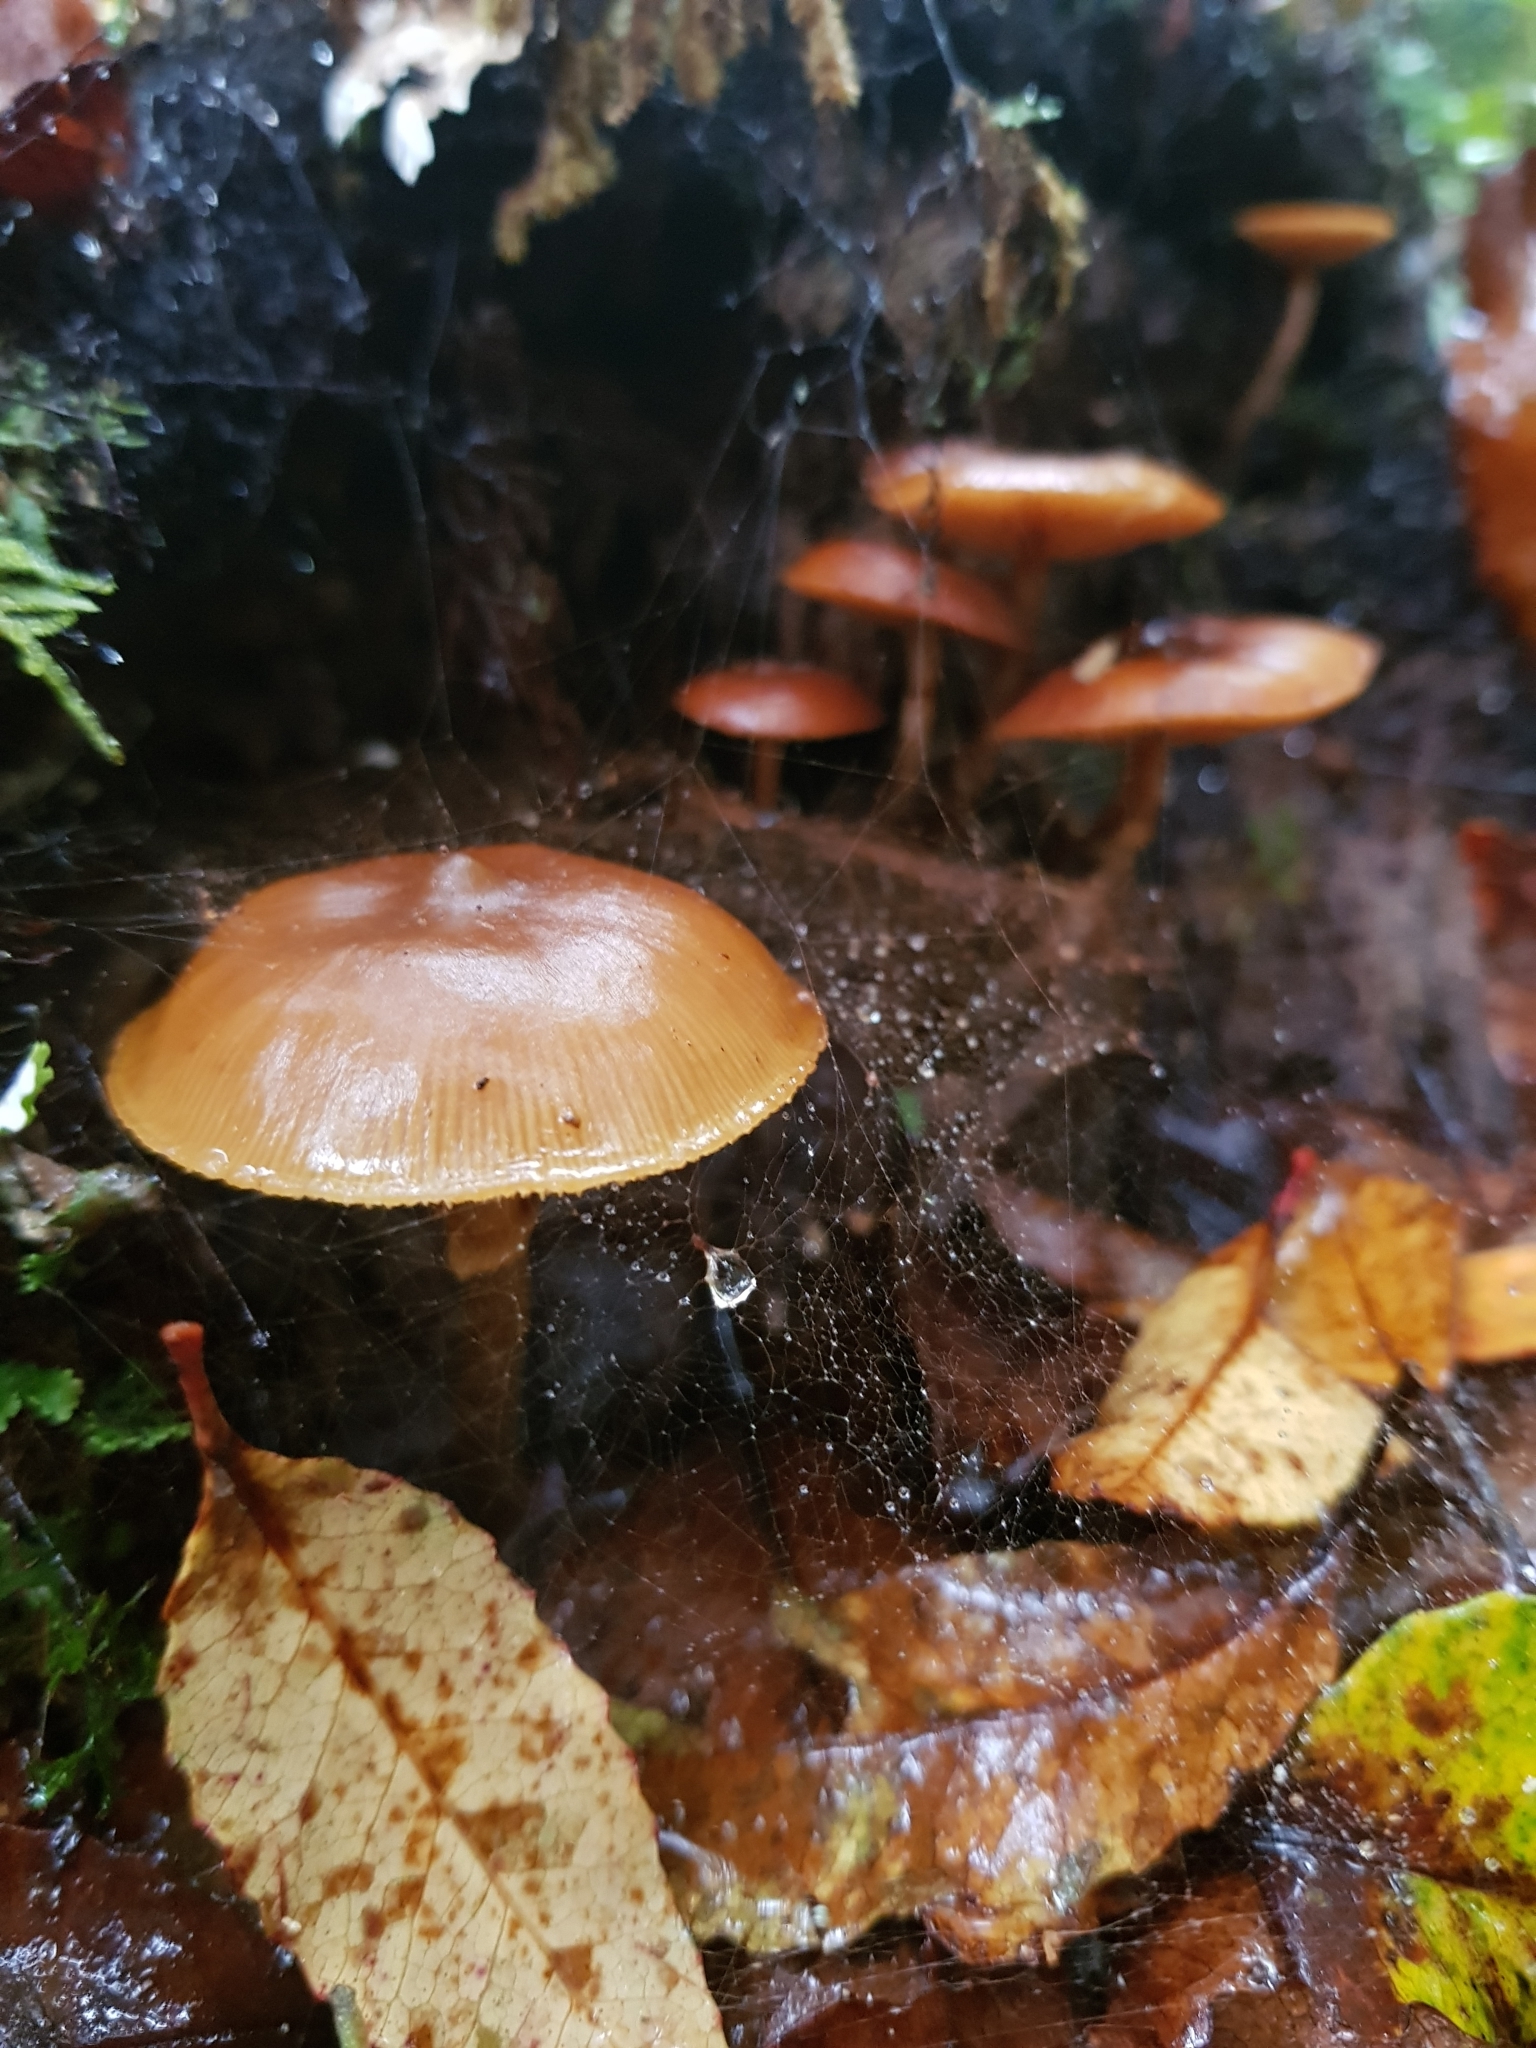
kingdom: Fungi
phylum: Basidiomycota
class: Agaricomycetes
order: Agaricales
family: Hymenogastraceae
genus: Galerina
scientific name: Galerina patagonica
